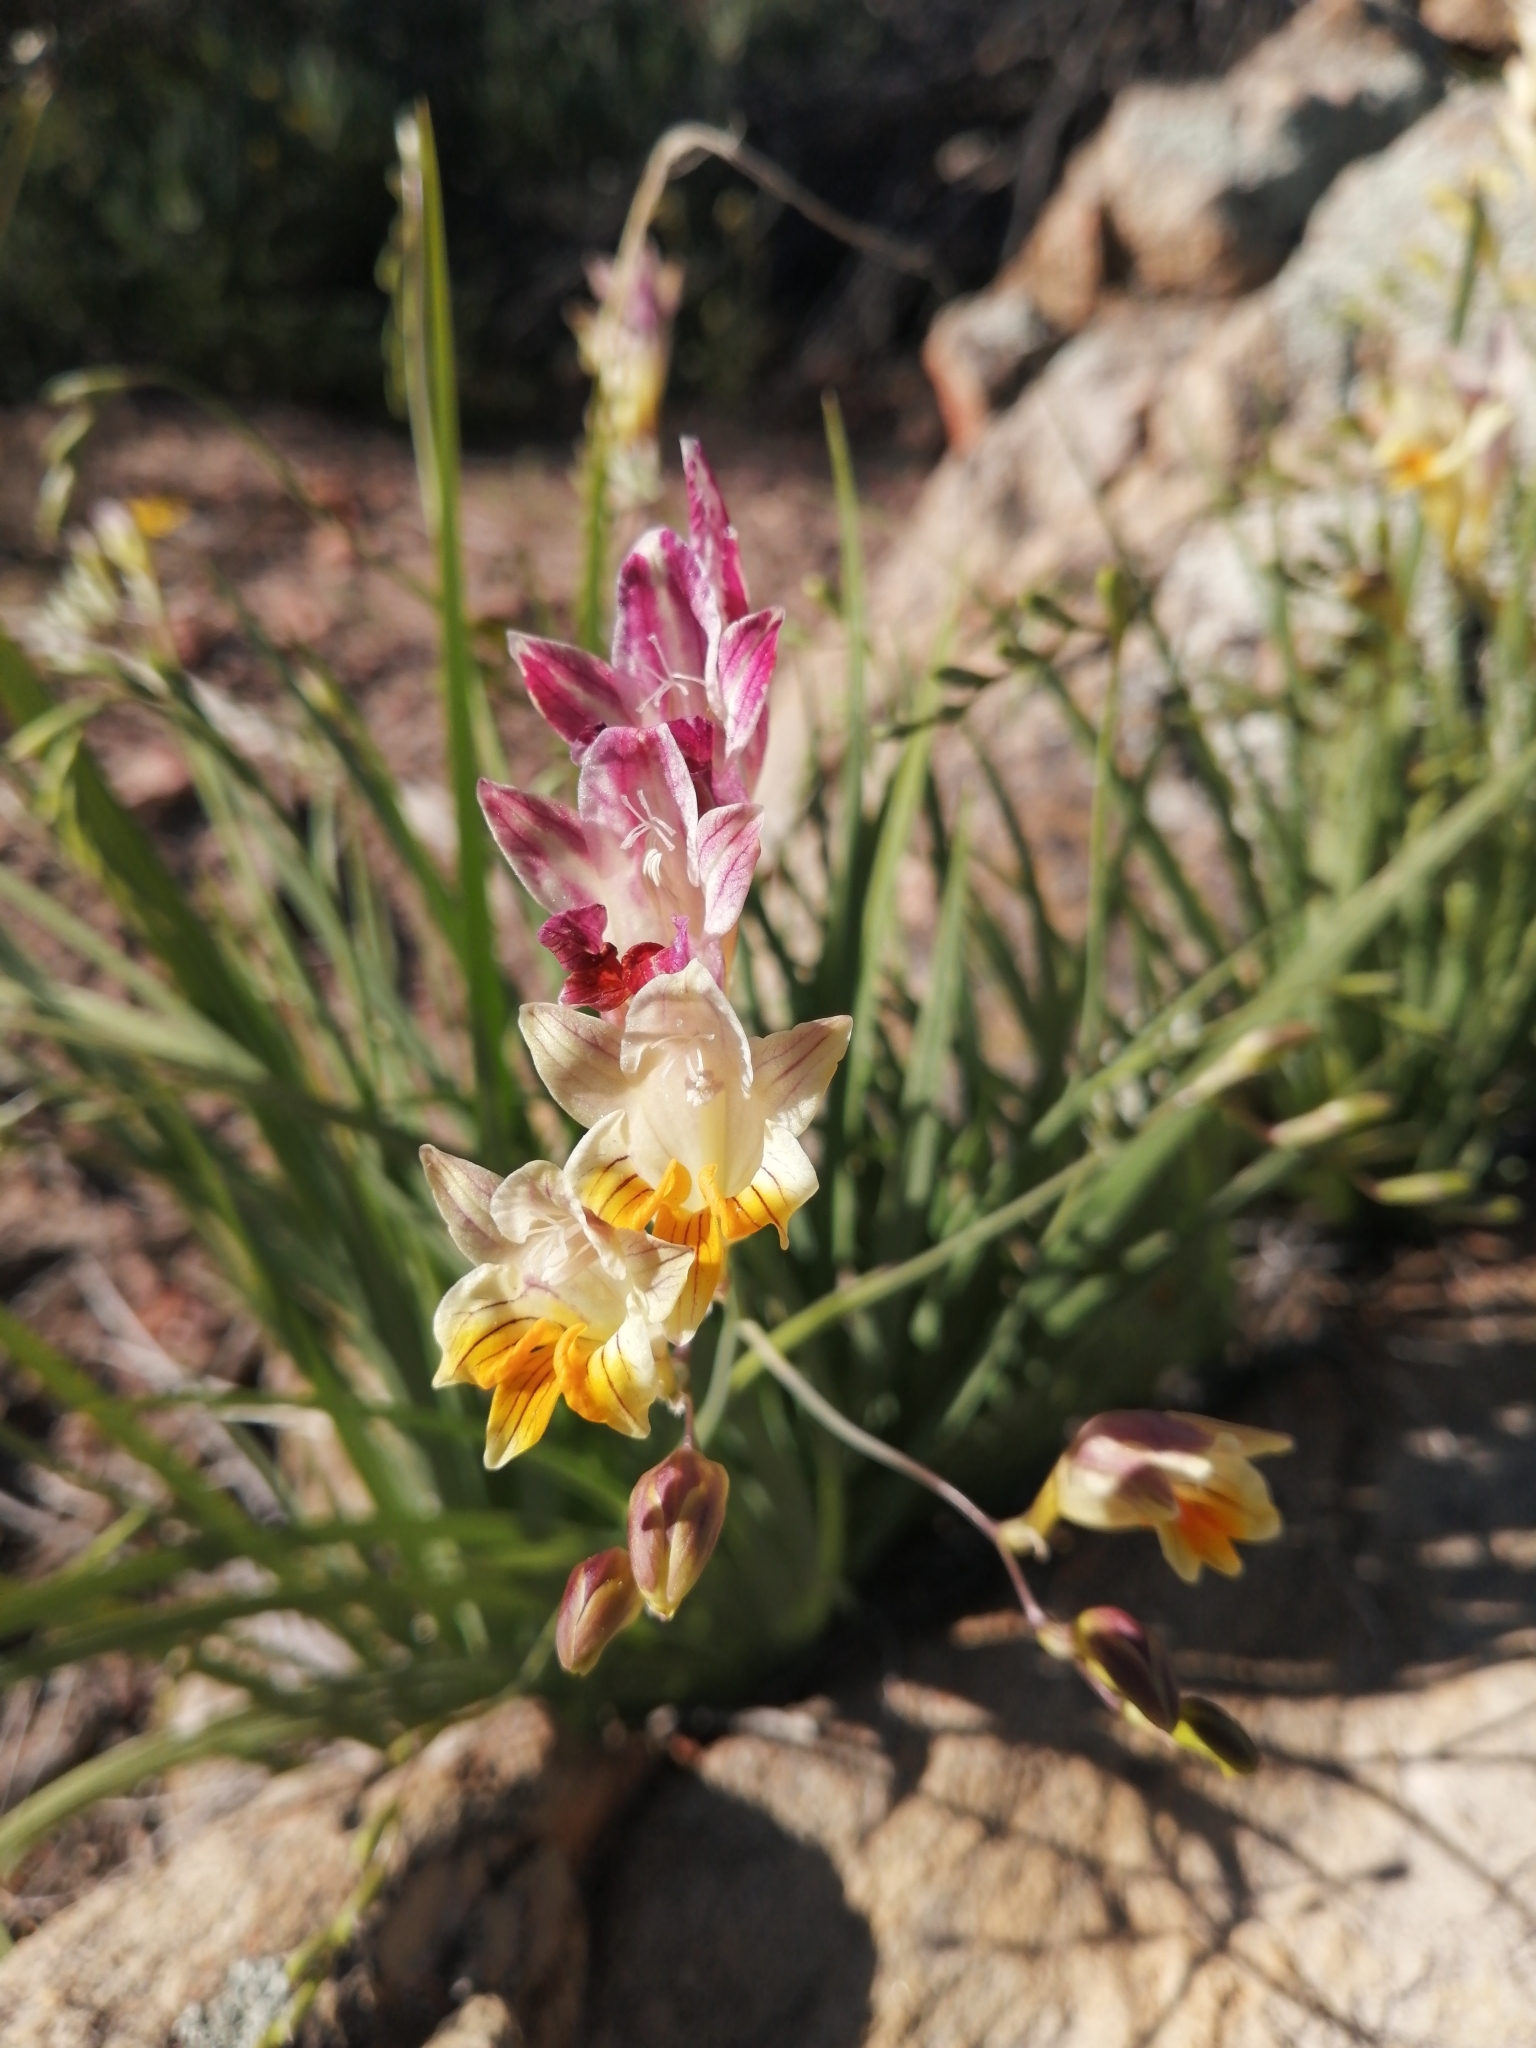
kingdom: Plantae
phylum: Tracheophyta
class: Liliopsida
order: Asparagales
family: Iridaceae
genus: Freesia
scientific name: Freesia refracta
